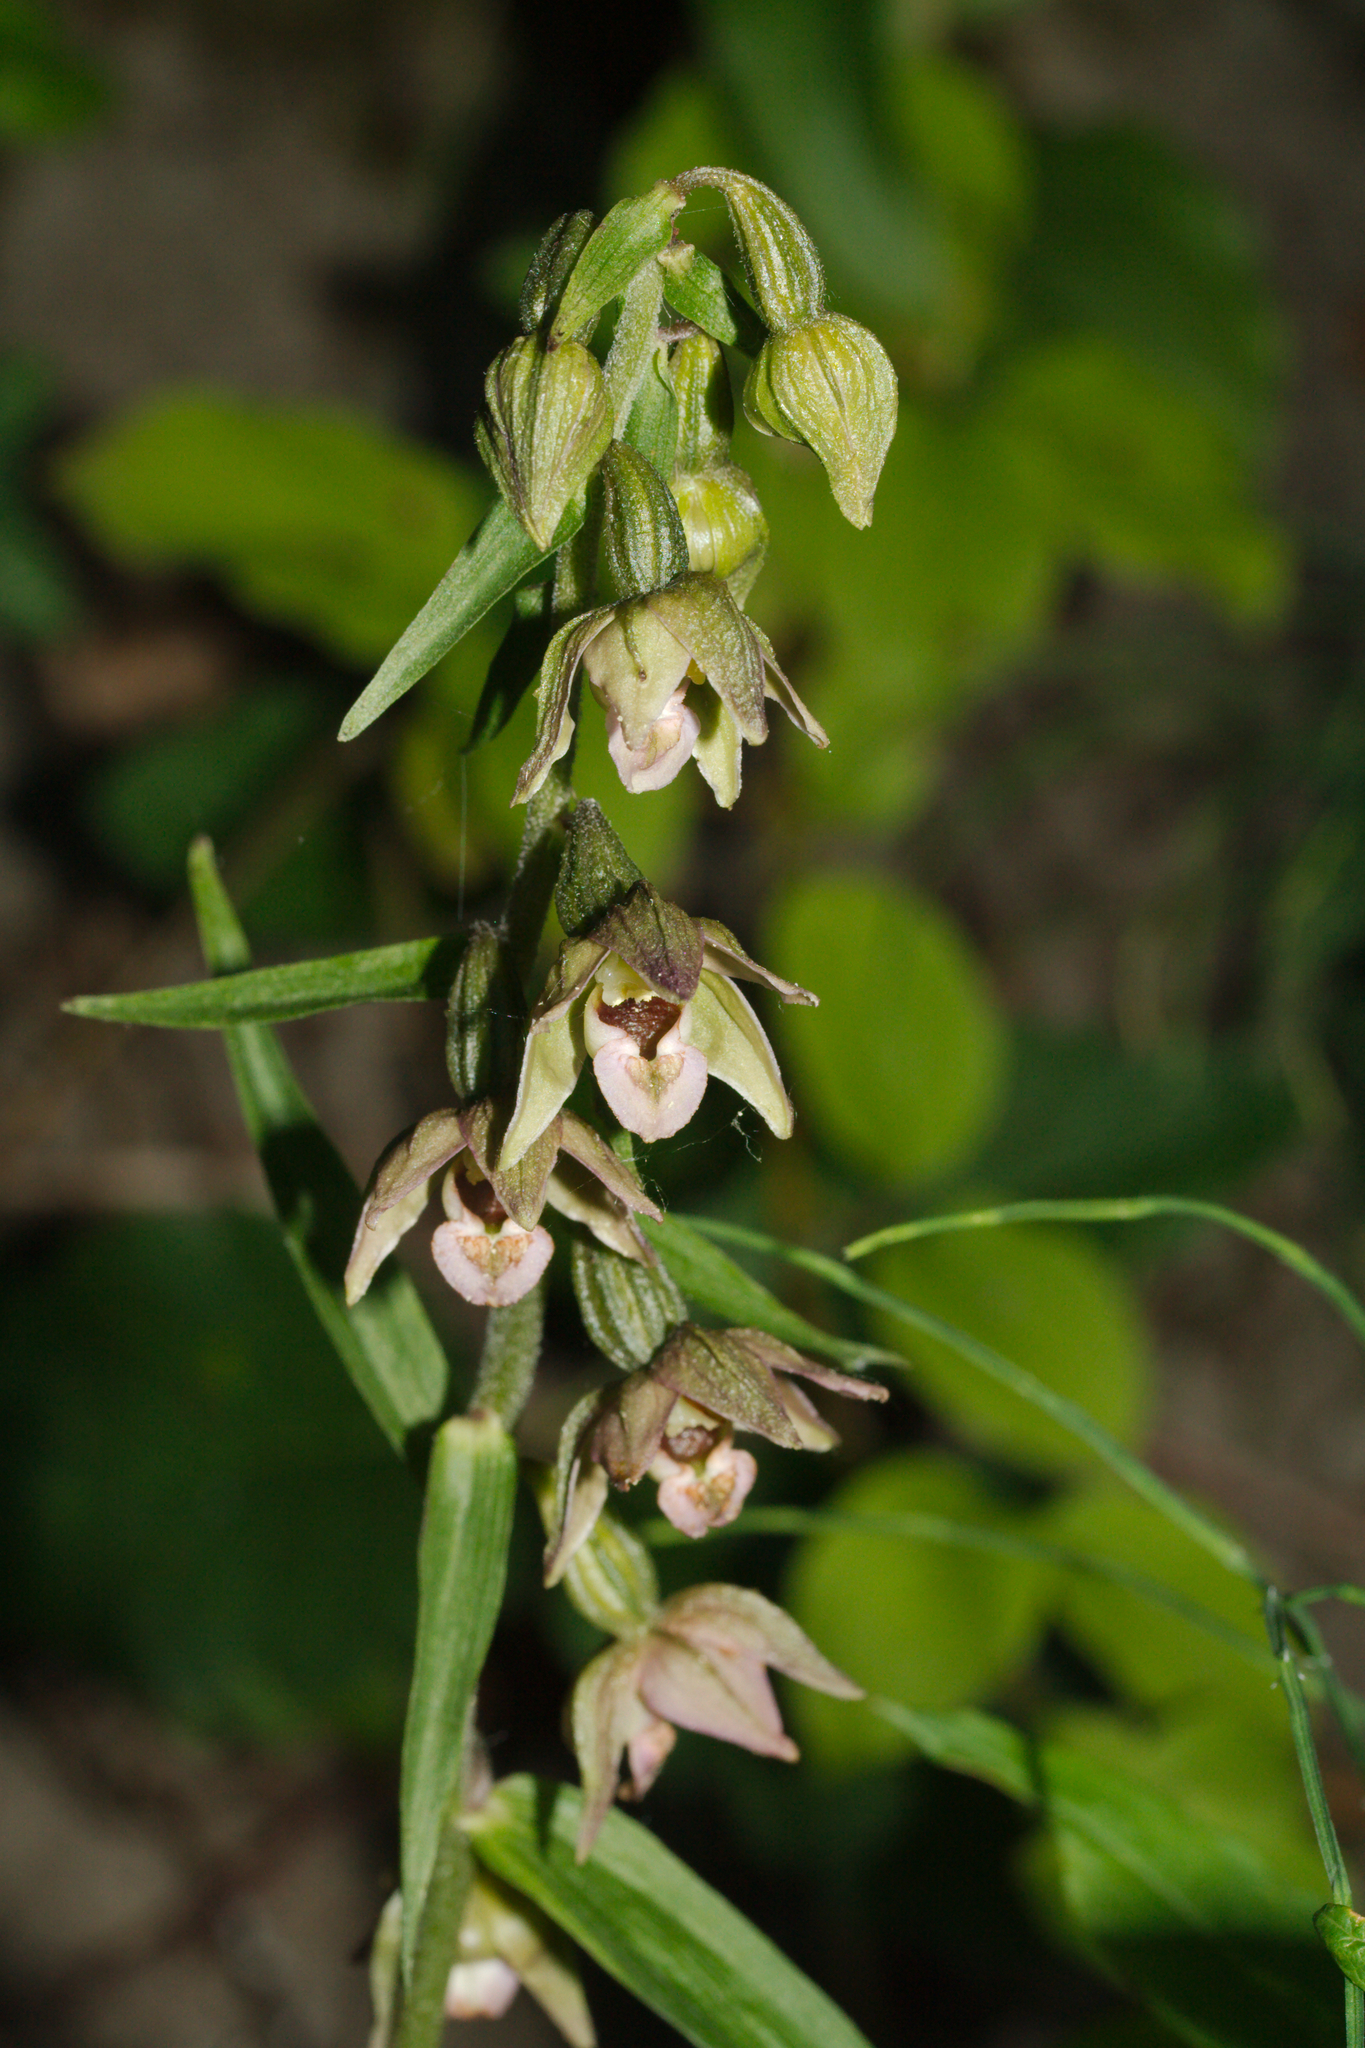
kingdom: Plantae
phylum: Tracheophyta
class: Liliopsida
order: Asparagales
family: Orchidaceae
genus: Epipactis
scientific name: Epipactis helleborine
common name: Broad-leaved helleborine
